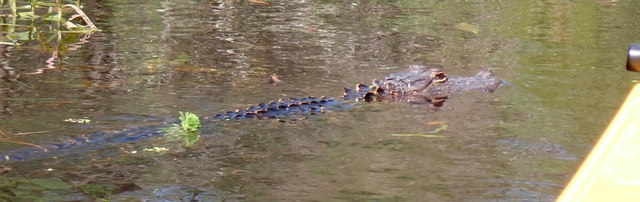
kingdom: Animalia
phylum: Chordata
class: Crocodylia
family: Alligatoridae
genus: Alligator
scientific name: Alligator mississippiensis
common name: American alligator
